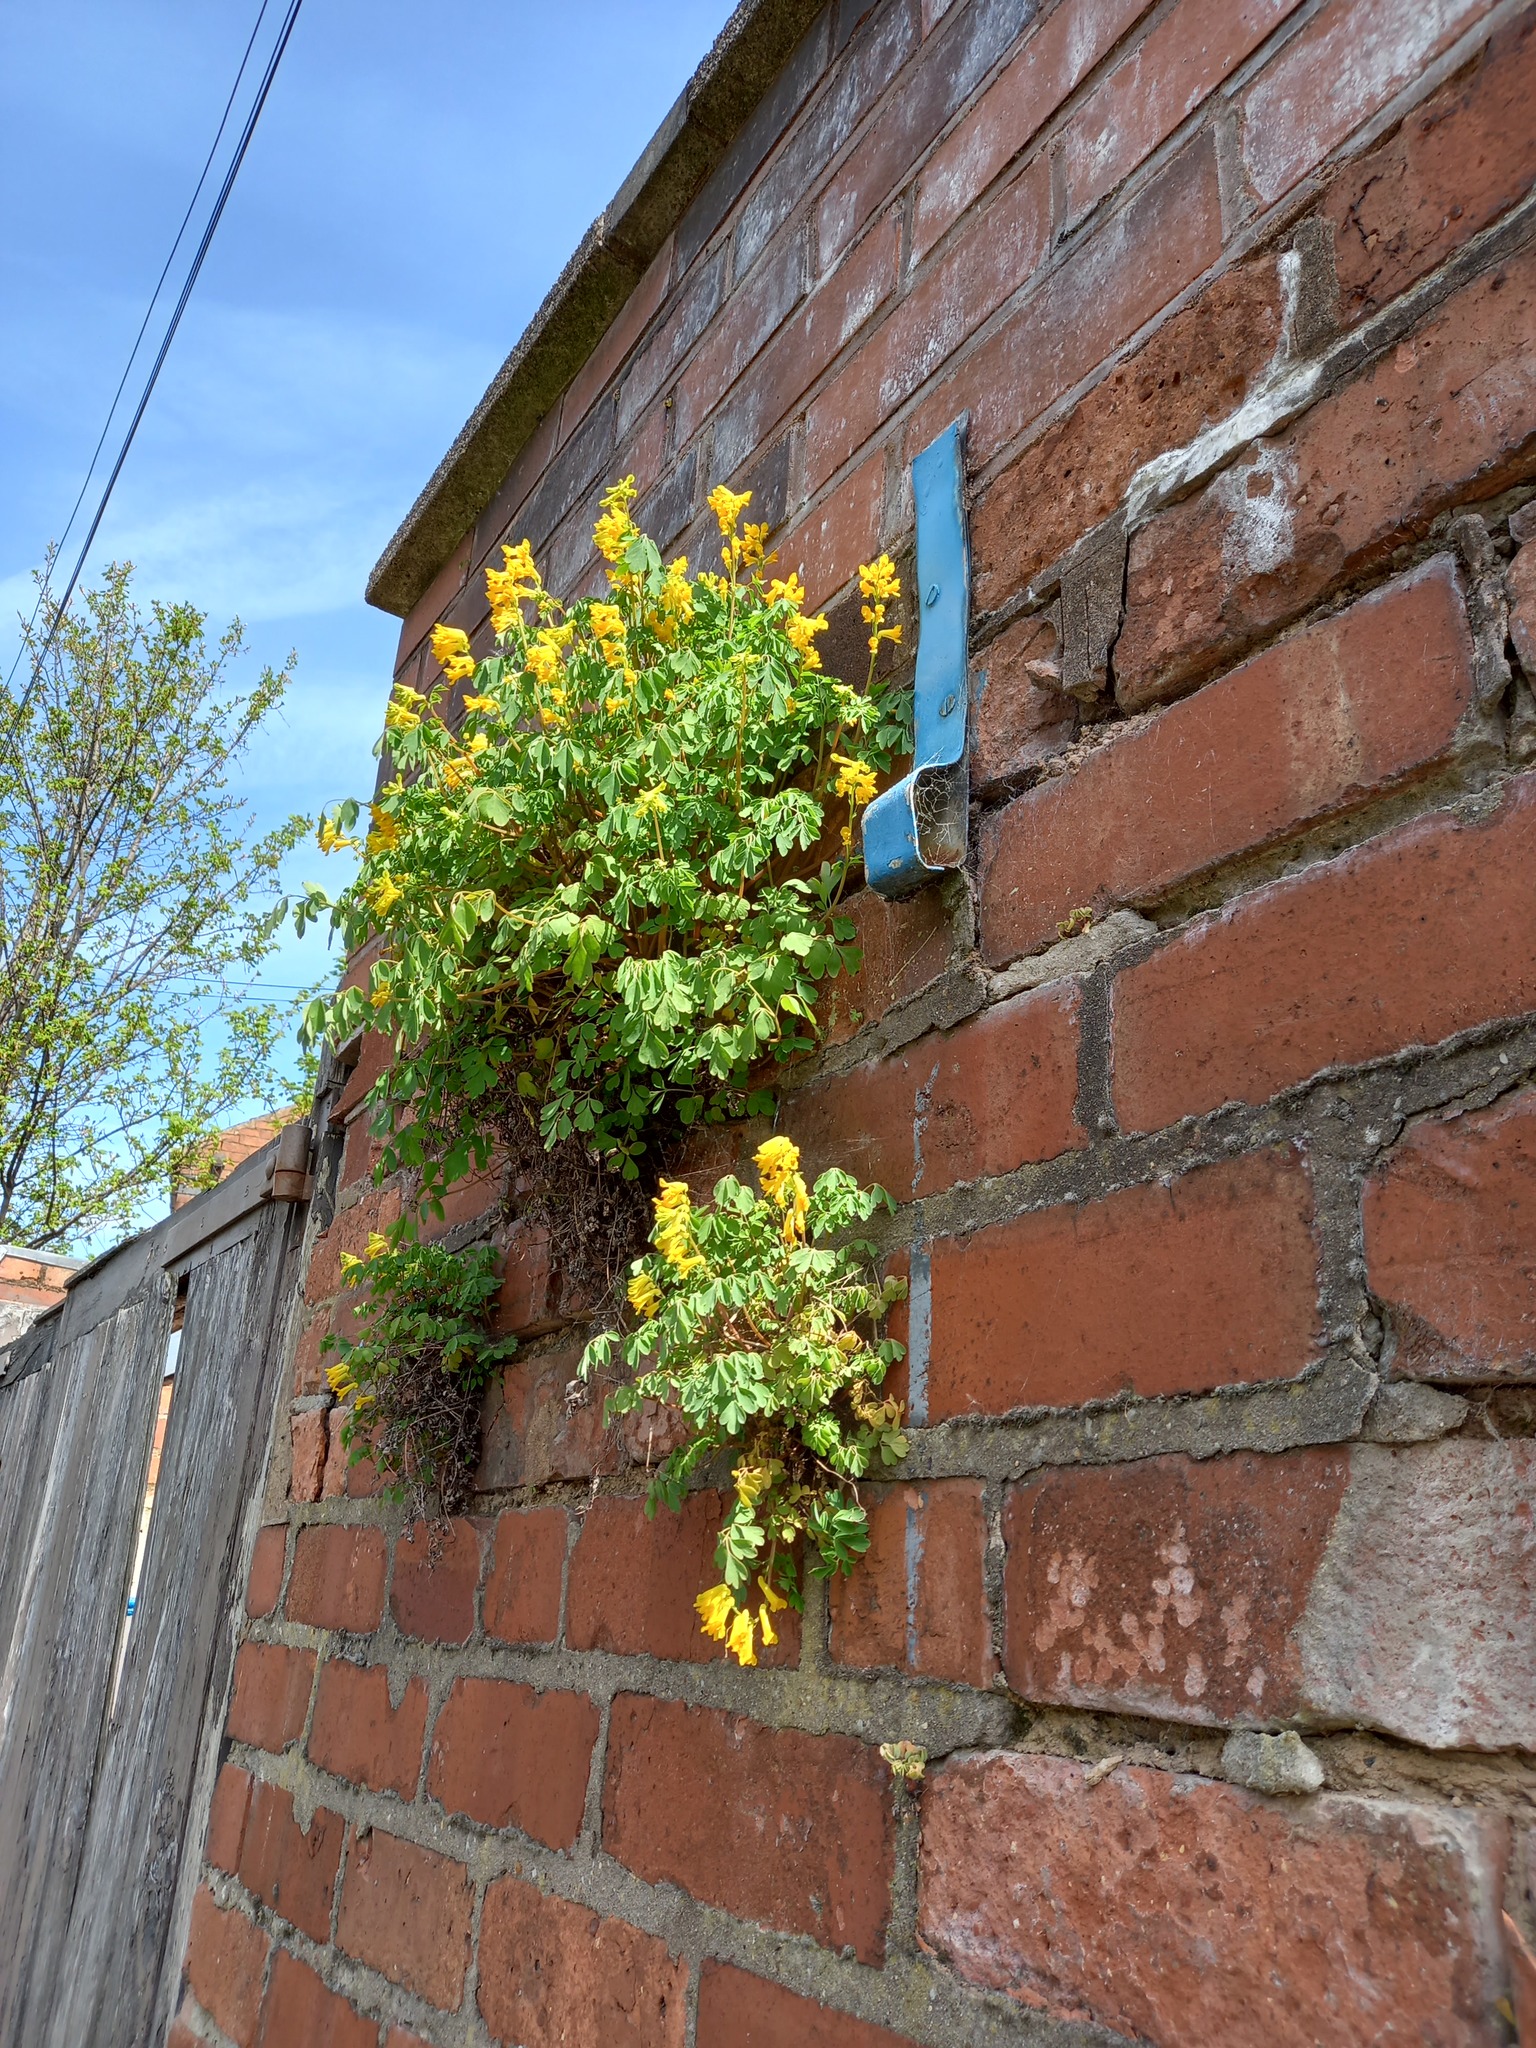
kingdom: Plantae
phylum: Tracheophyta
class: Magnoliopsida
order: Ranunculales
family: Papaveraceae
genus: Pseudofumaria
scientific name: Pseudofumaria lutea
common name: Yellow corydalis
